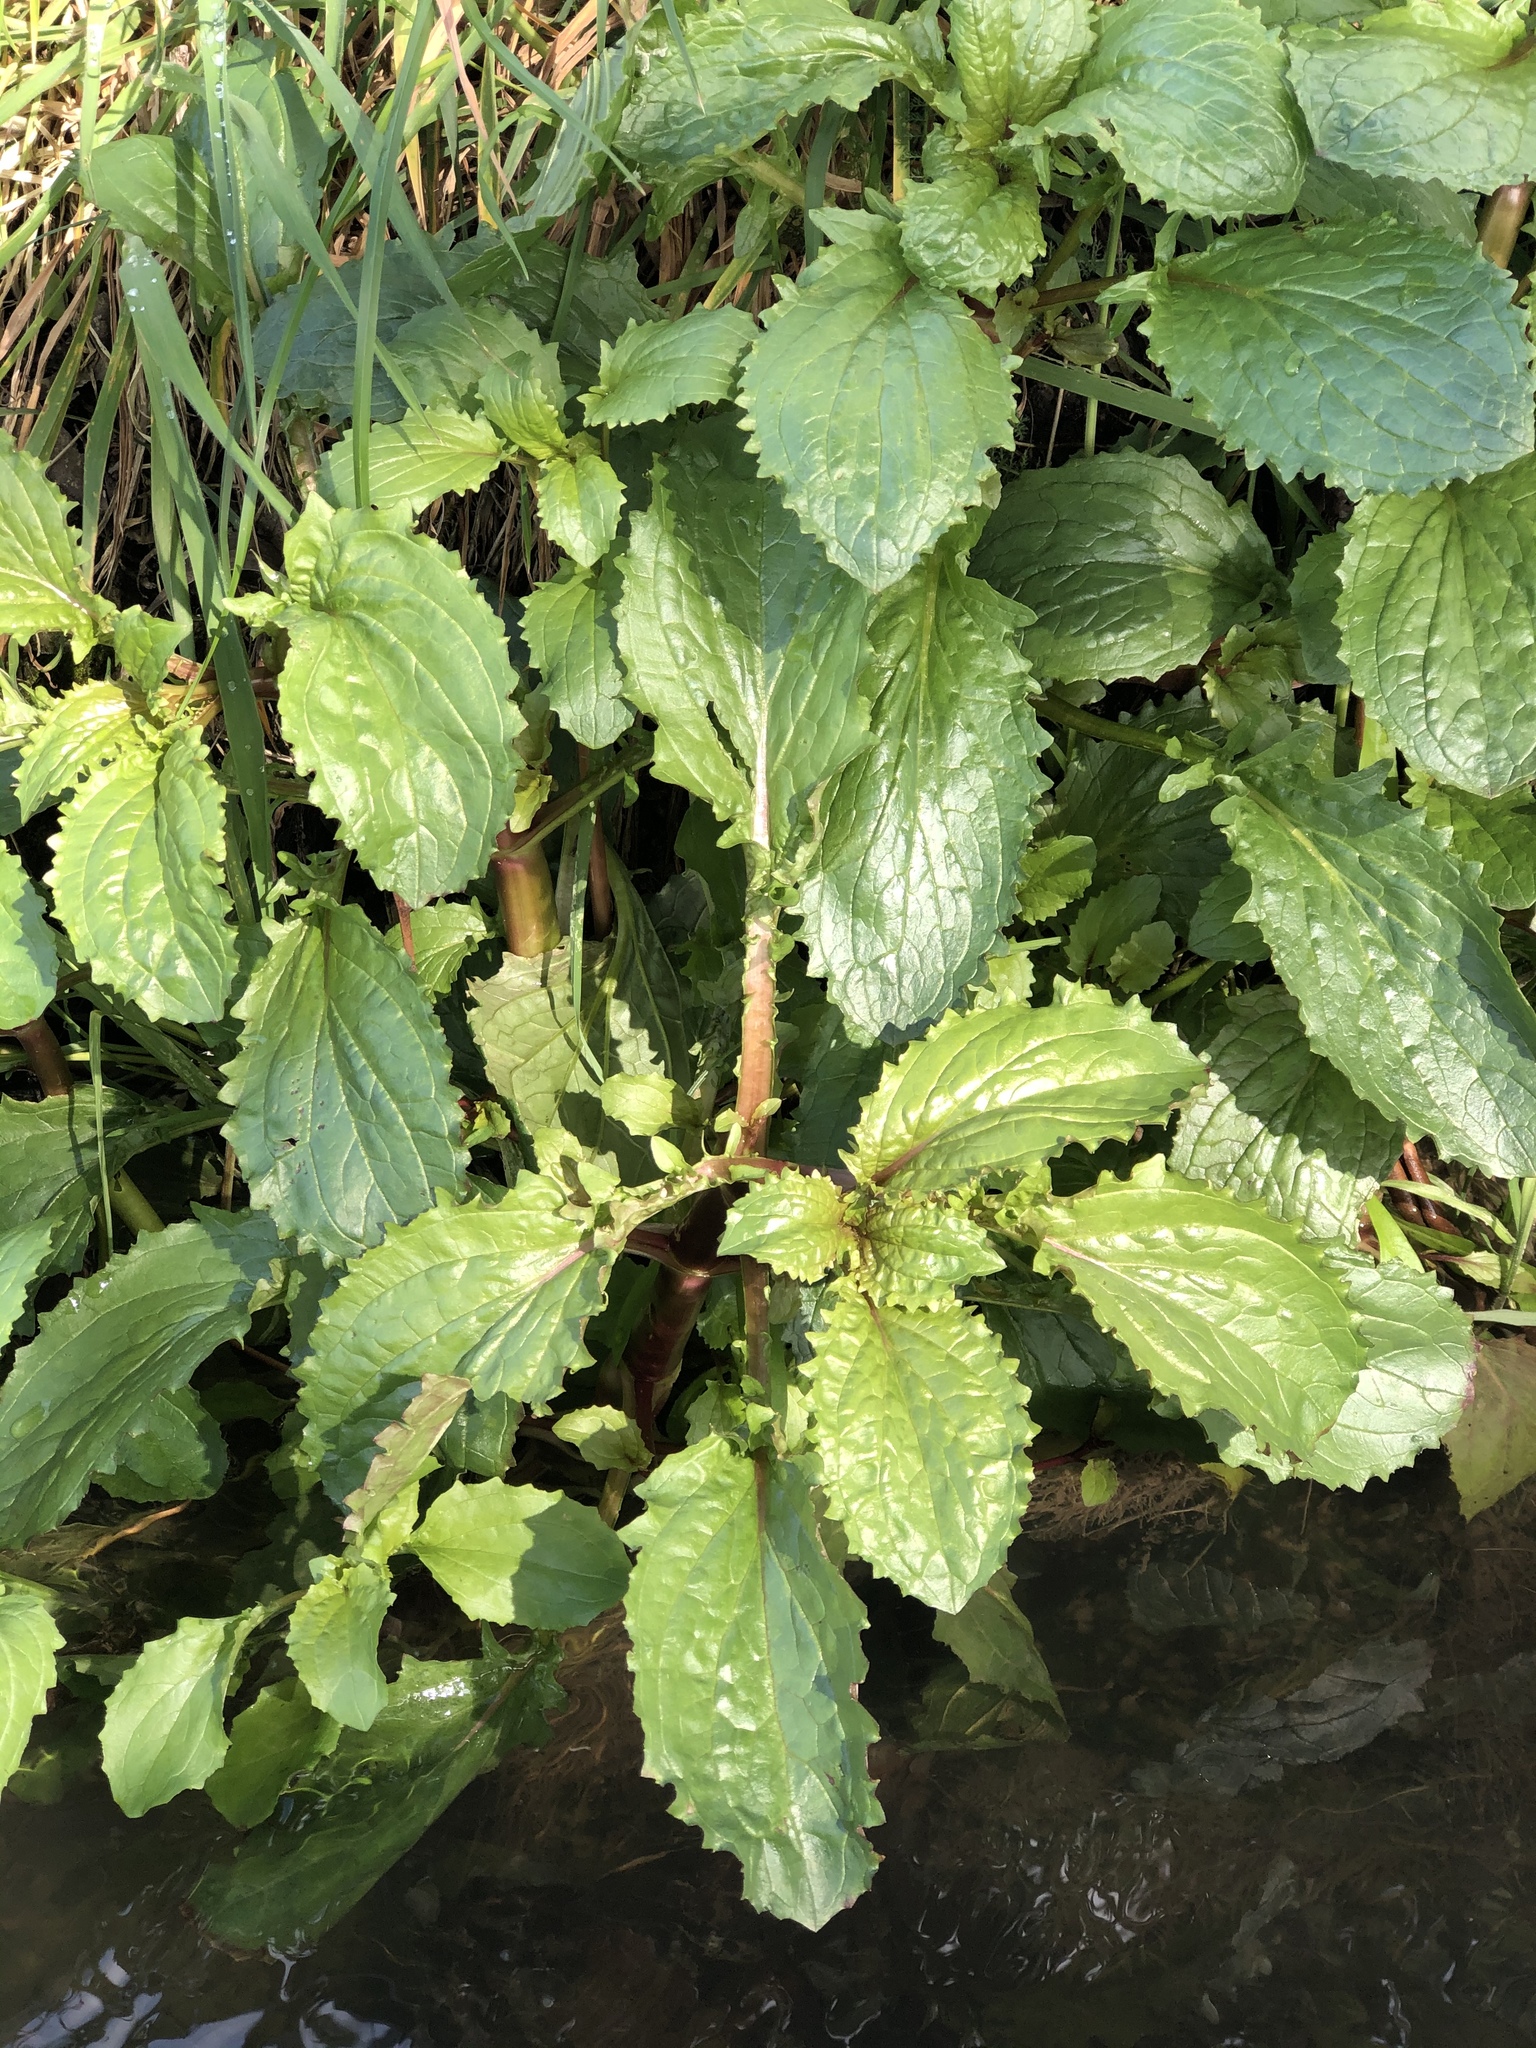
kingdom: Plantae
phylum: Tracheophyta
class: Magnoliopsida
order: Lamiales
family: Phrymaceae
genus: Erythranthe
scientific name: Erythranthe guttata
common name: Monkeyflower
